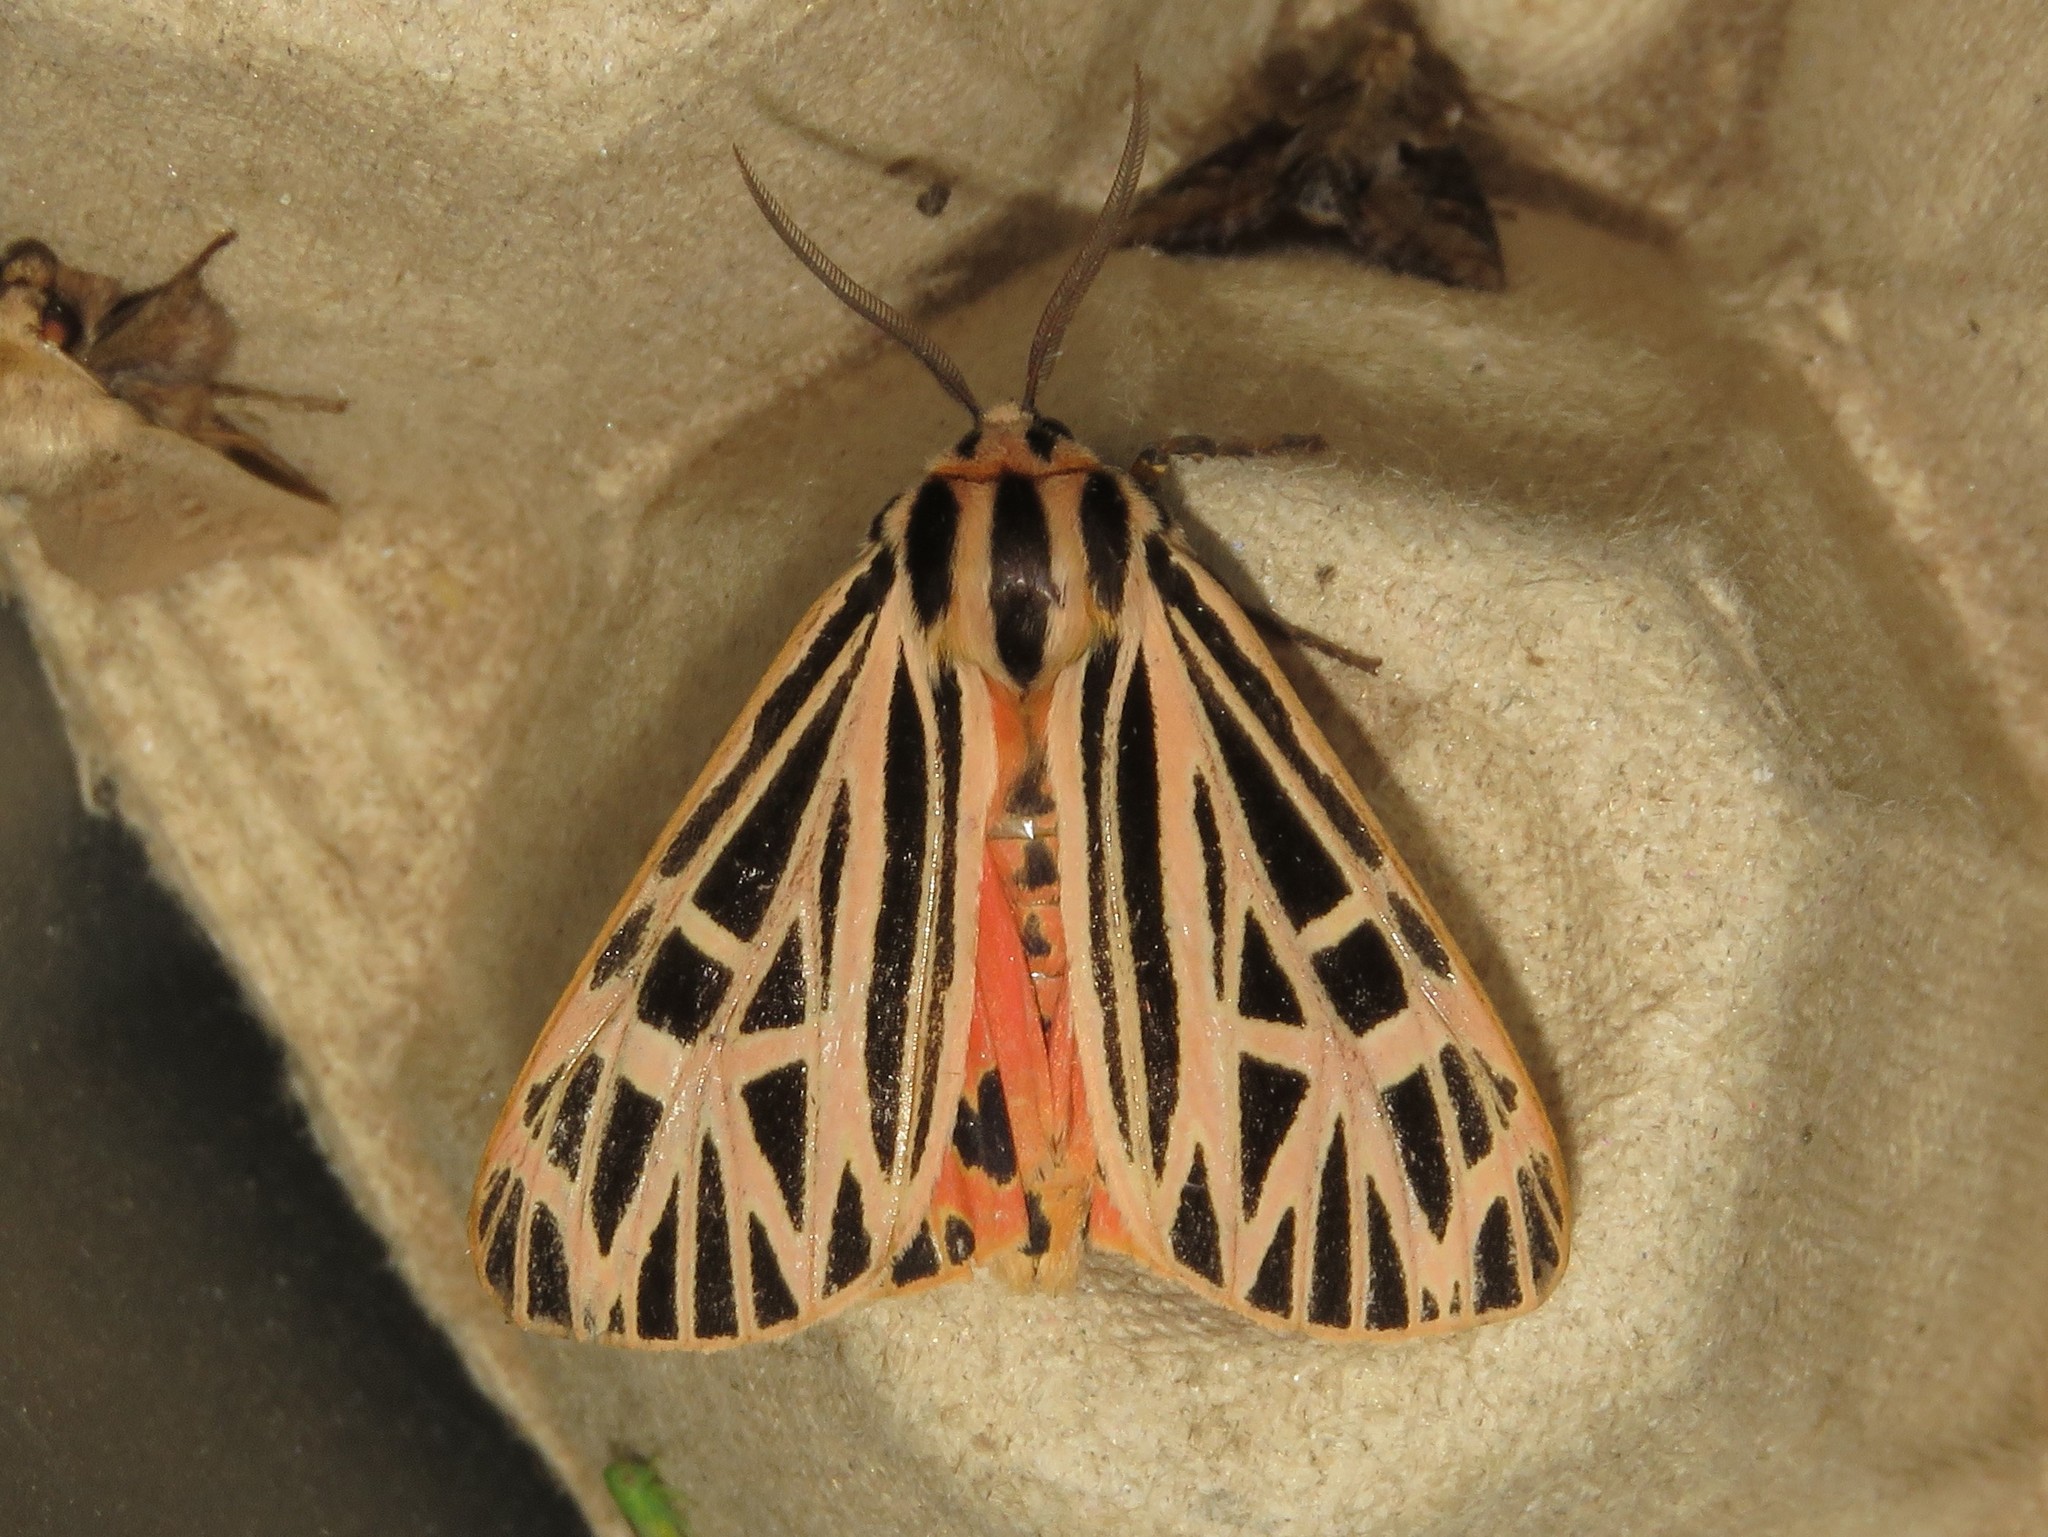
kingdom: Animalia
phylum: Arthropoda
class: Insecta
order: Lepidoptera
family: Erebidae
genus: Grammia
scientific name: Grammia virgo
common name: Virgin tiger moth
